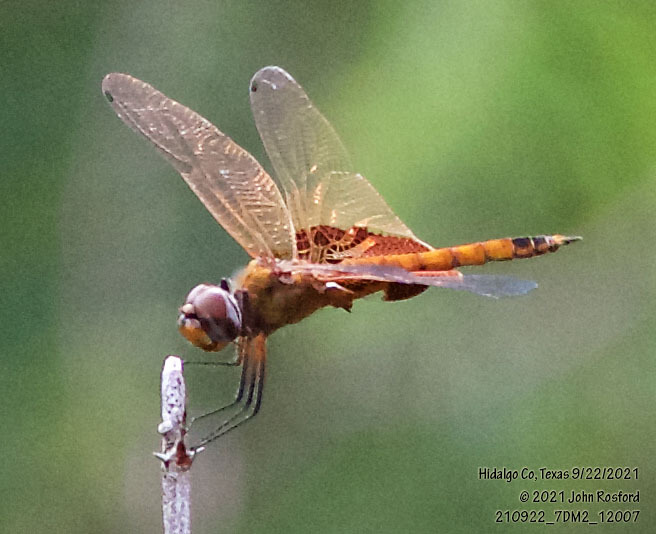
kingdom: Animalia
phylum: Arthropoda
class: Insecta
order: Odonata
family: Libellulidae
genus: Tramea
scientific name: Tramea onusta
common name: Red saddlebags
